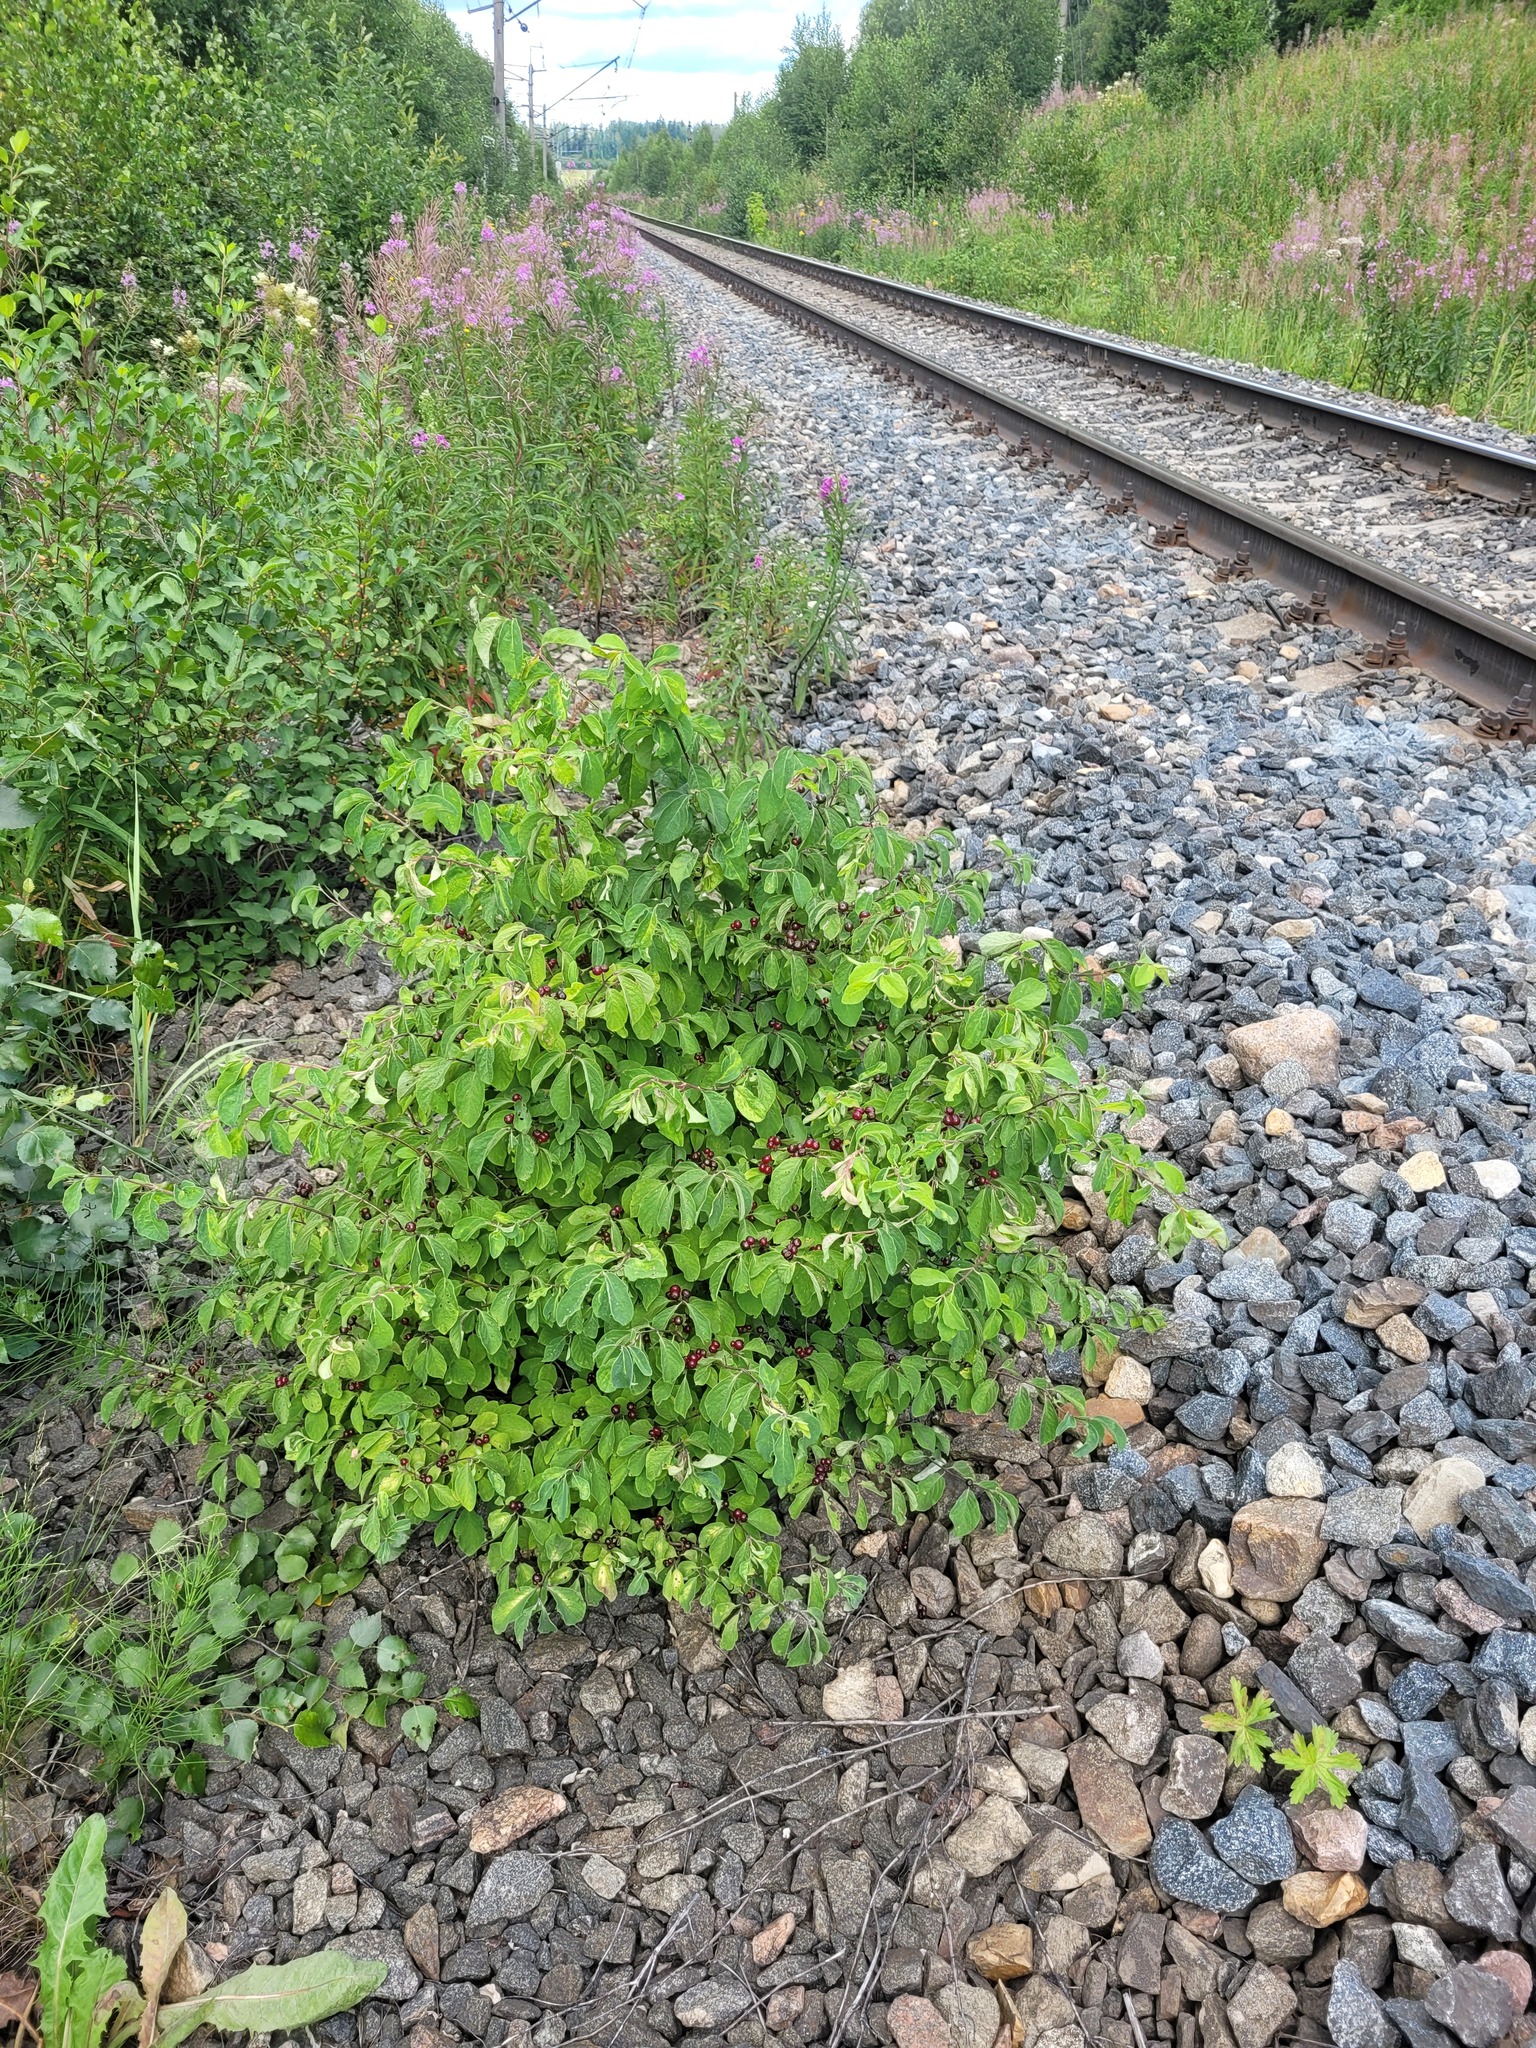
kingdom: Plantae
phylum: Tracheophyta
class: Magnoliopsida
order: Dipsacales
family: Caprifoliaceae
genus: Lonicera
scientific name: Lonicera xylosteum
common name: Fly honeysuckle
